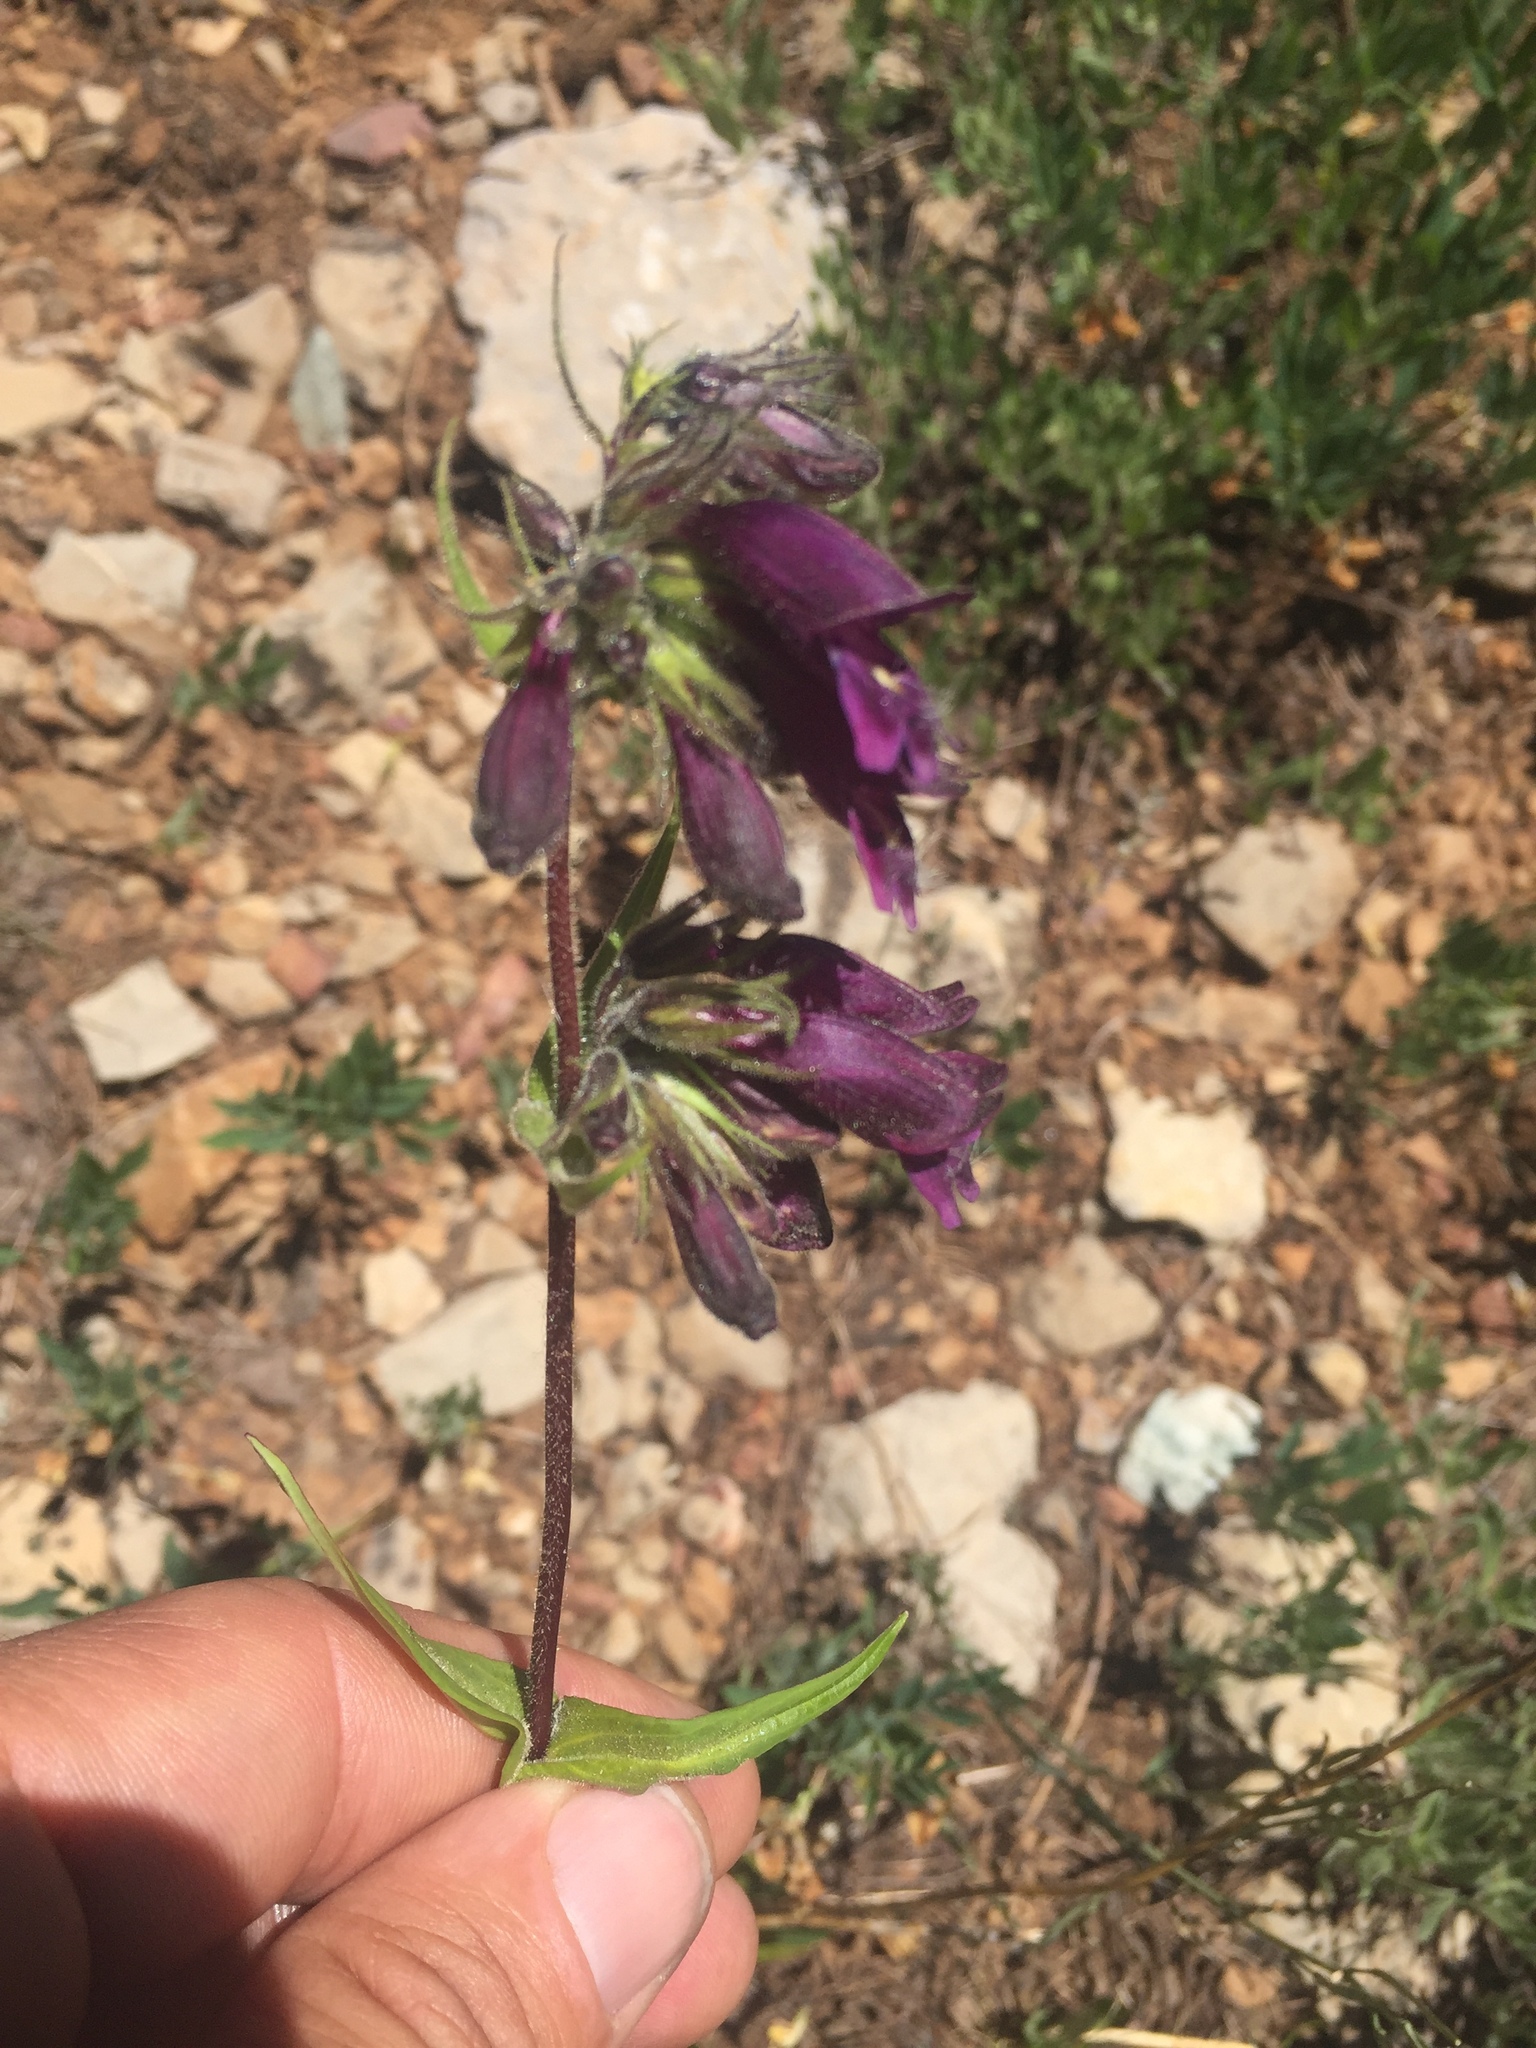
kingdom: Plantae
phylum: Tracheophyta
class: Magnoliopsida
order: Lamiales
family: Plantaginaceae
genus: Penstemon
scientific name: Penstemon whippleanus
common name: Whipple's penstemon
